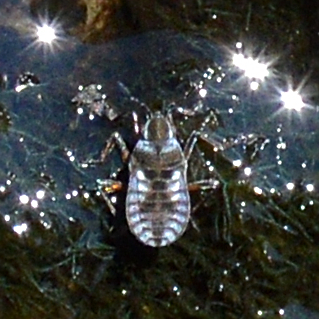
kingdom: Animalia
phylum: Arthropoda
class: Insecta
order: Hemiptera
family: Veliidae
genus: Microvelia
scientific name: Microvelia reticulata
